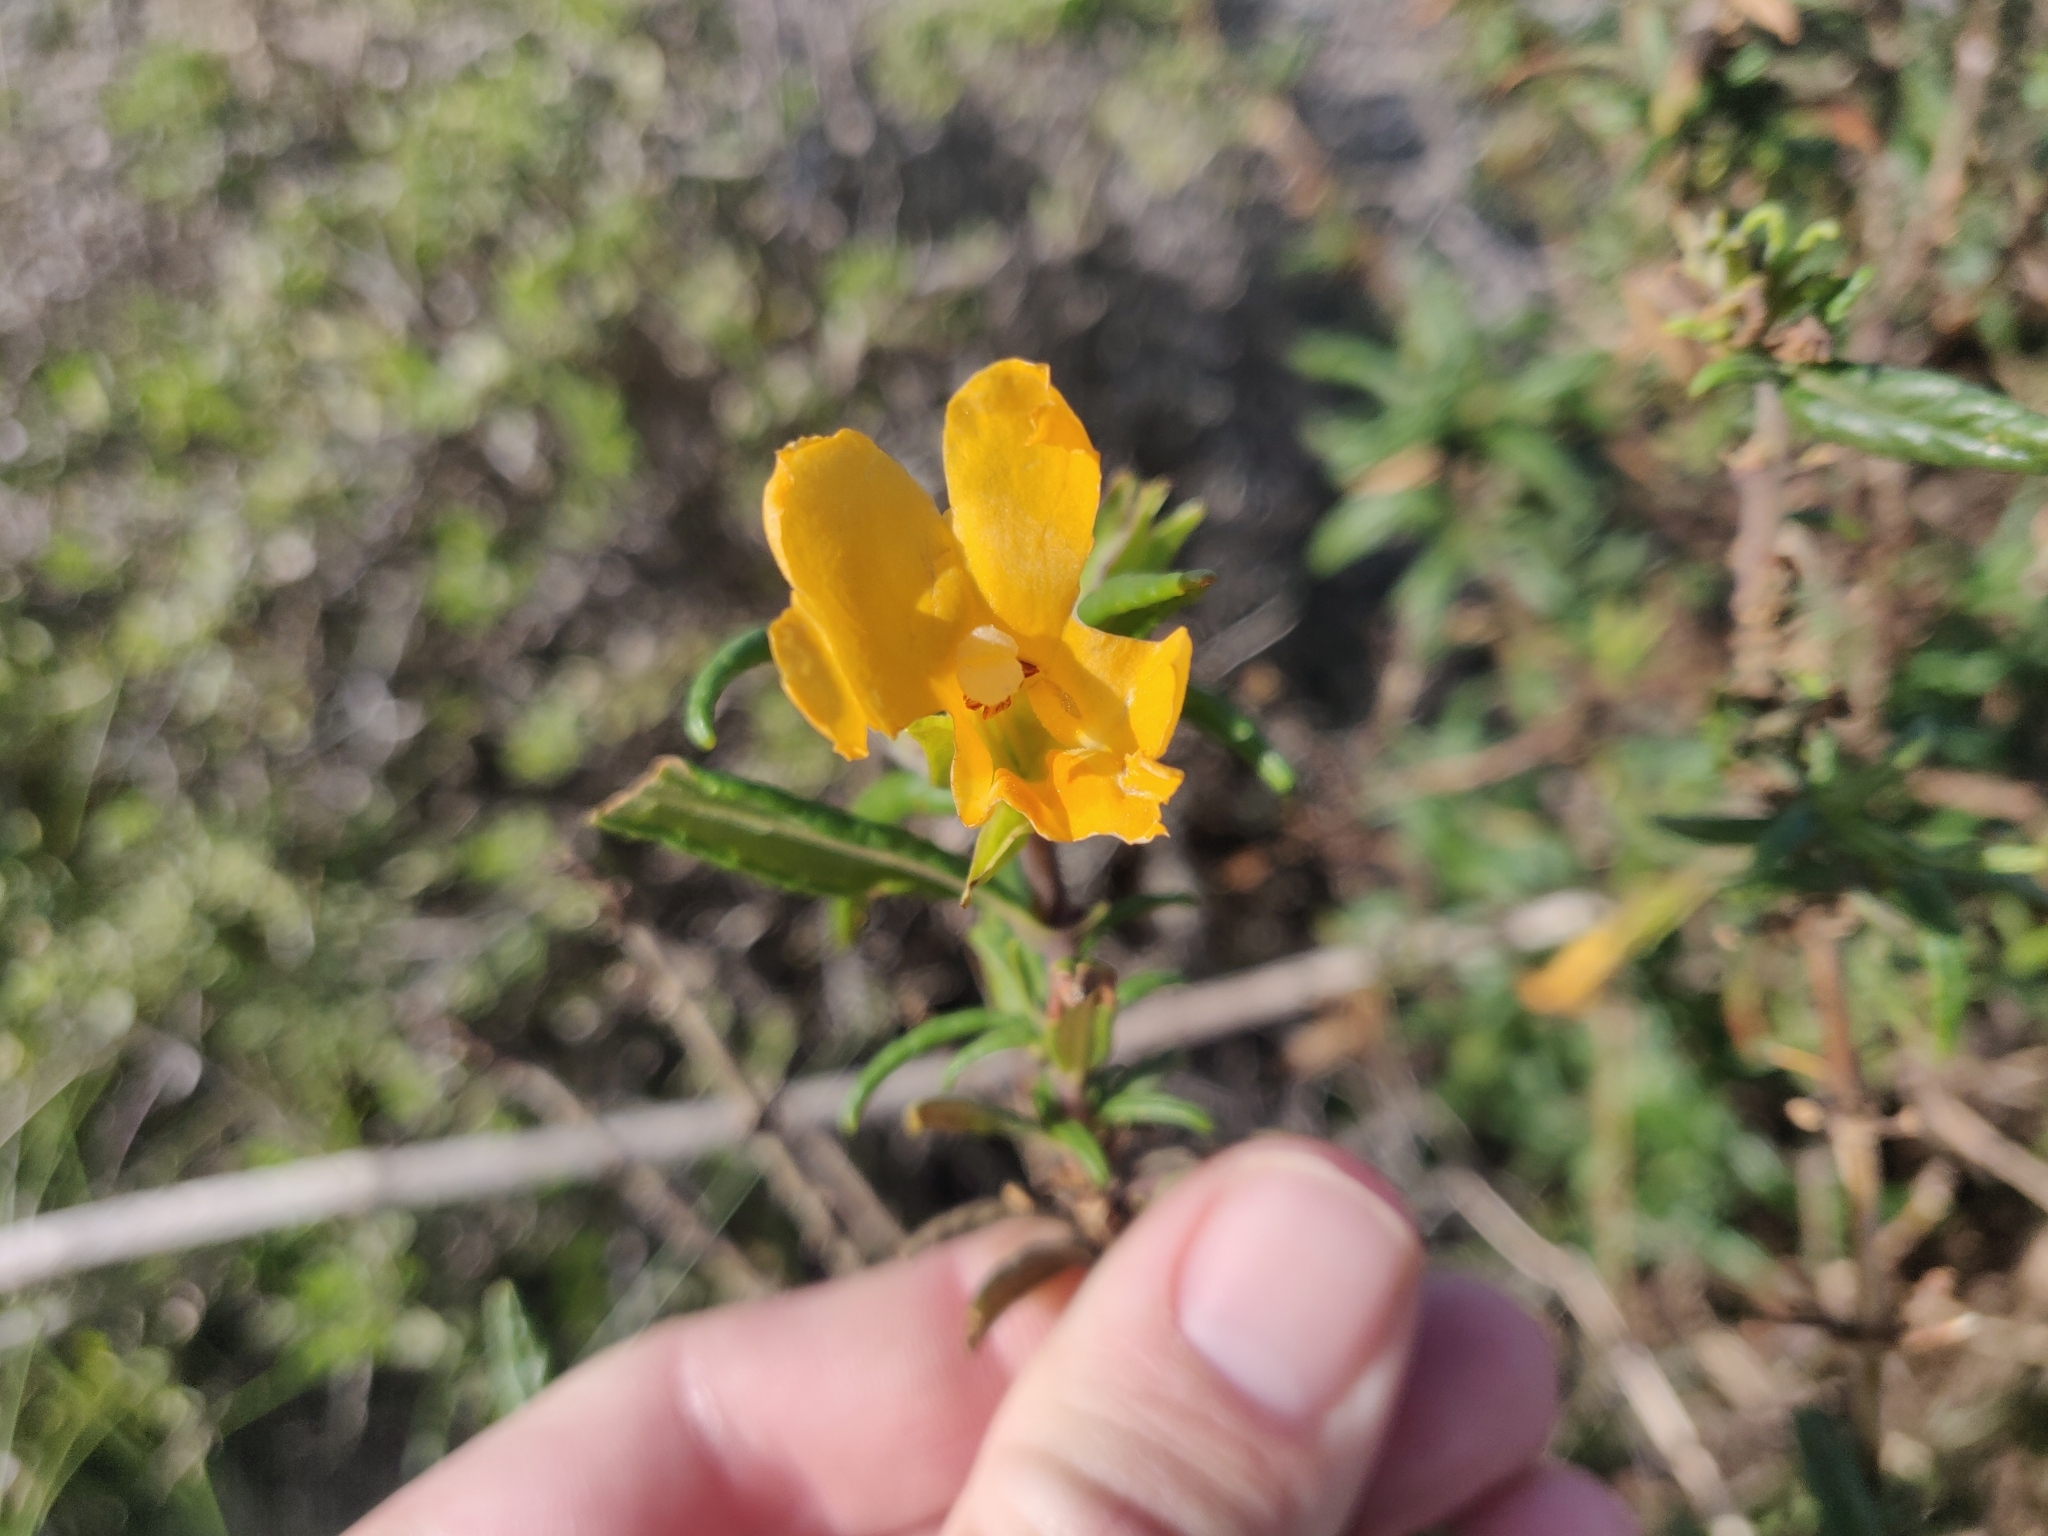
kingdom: Plantae
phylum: Tracheophyta
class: Magnoliopsida
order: Lamiales
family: Phrymaceae
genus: Diplacus
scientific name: Diplacus aurantiacus
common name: Bush monkey-flower
